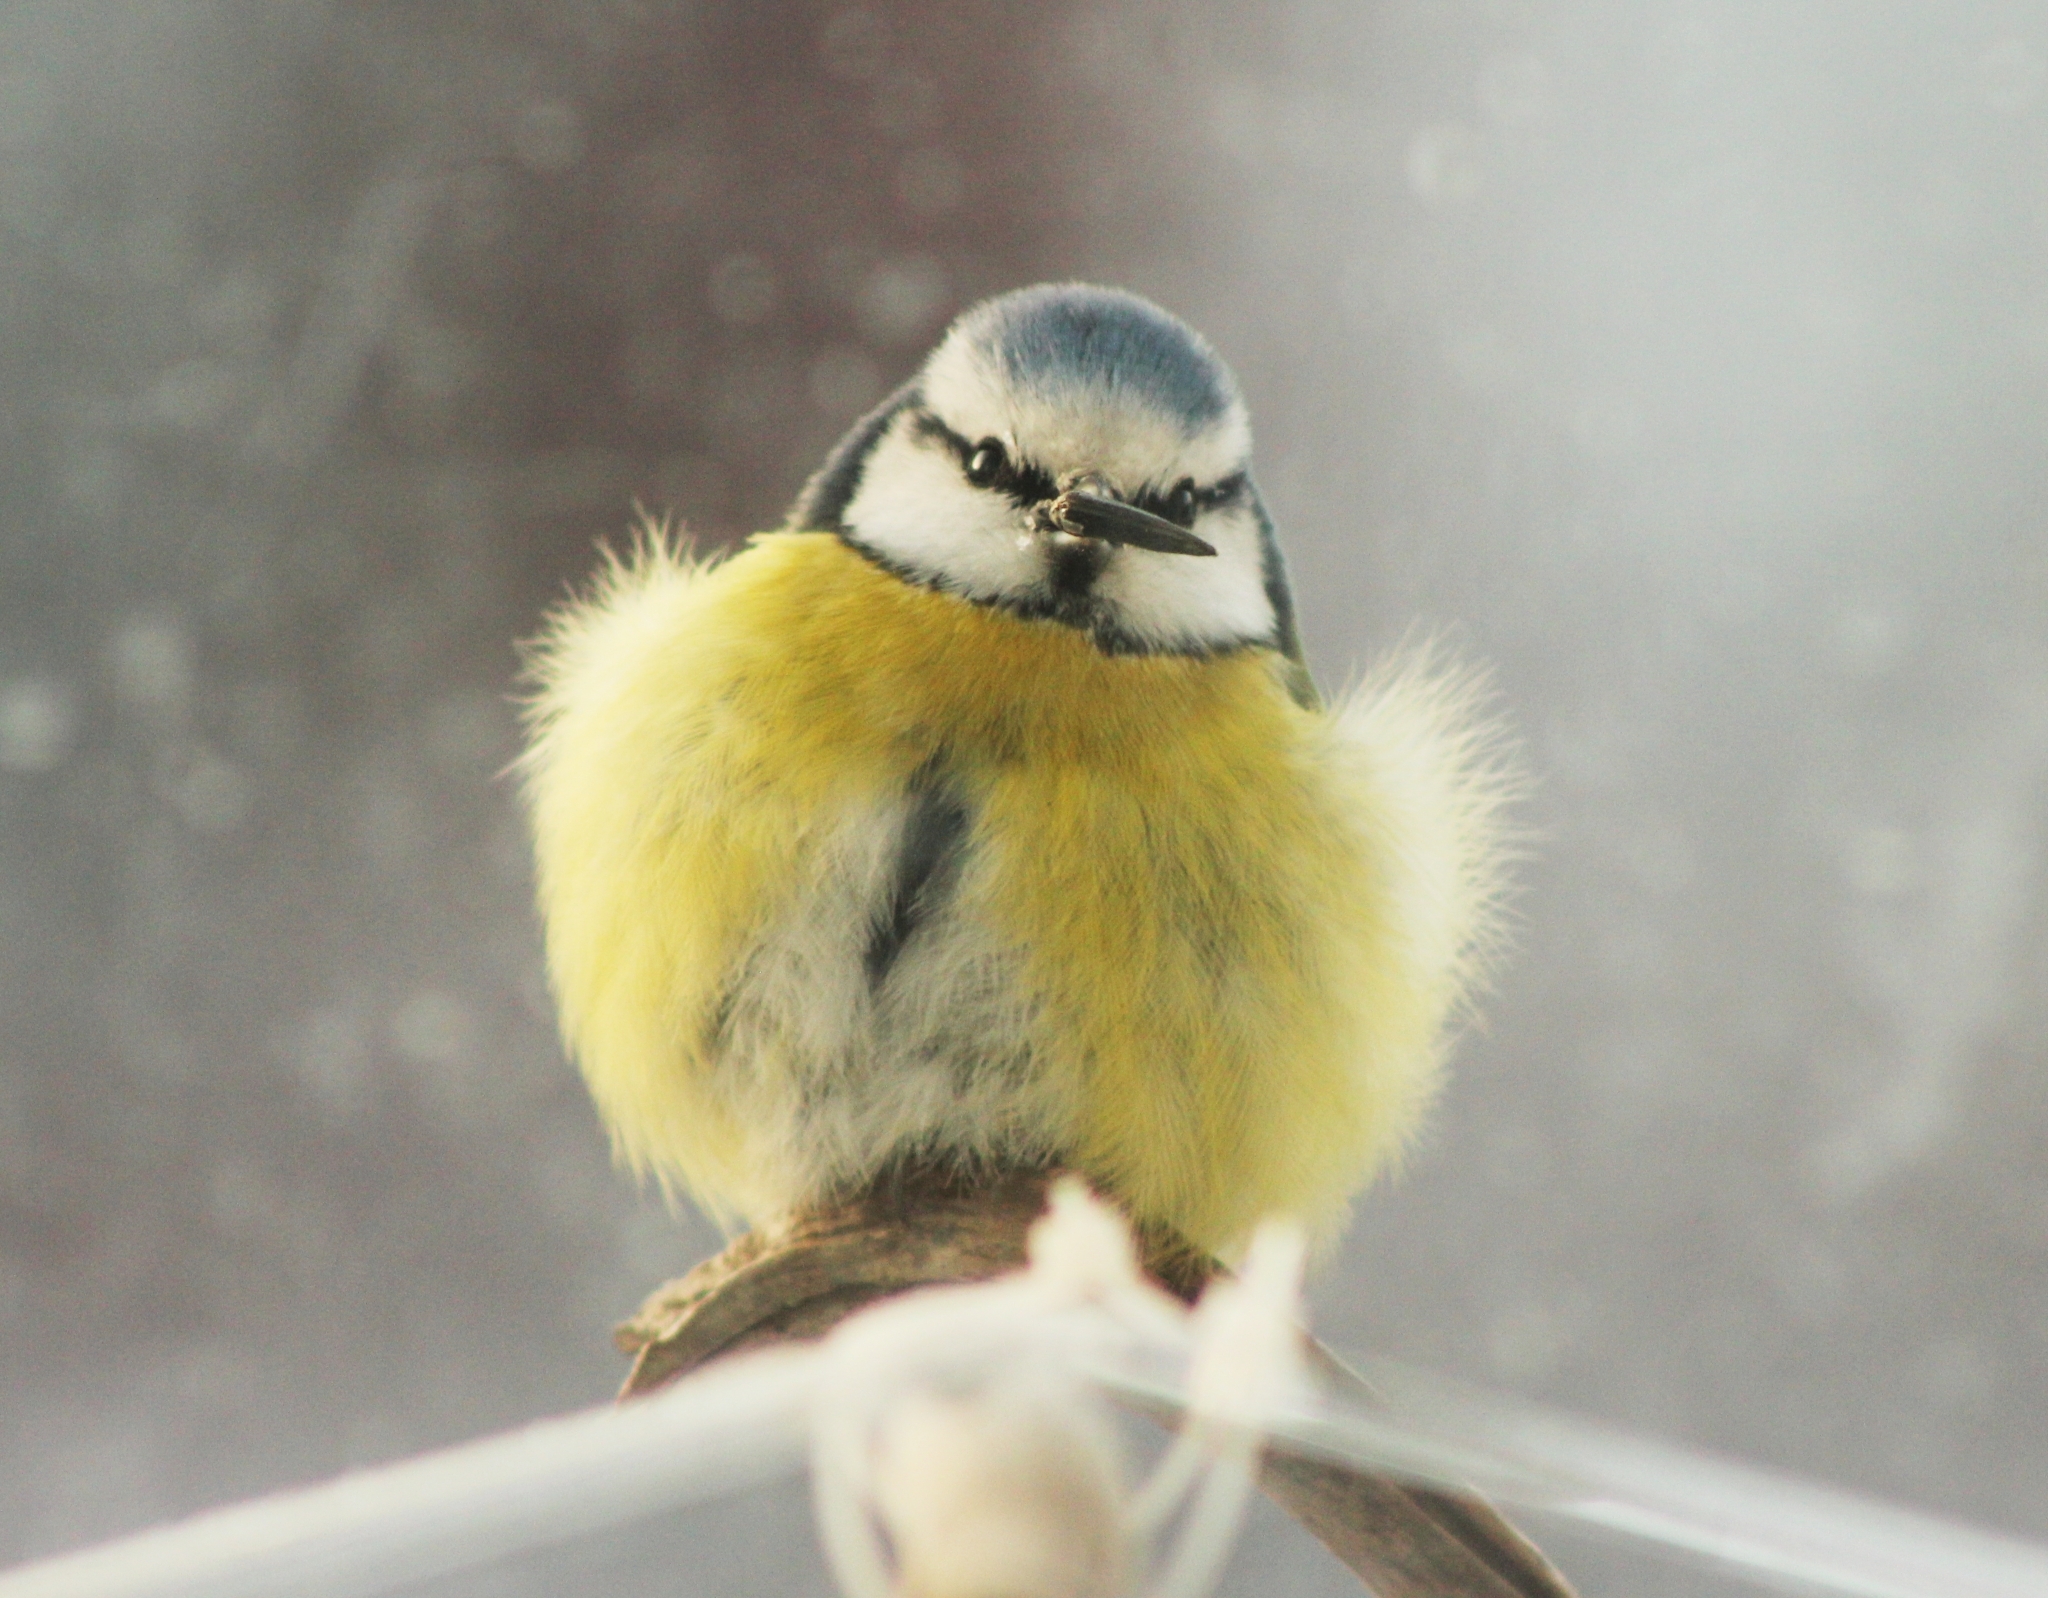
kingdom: Animalia
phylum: Chordata
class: Aves
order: Passeriformes
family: Paridae
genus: Cyanistes
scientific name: Cyanistes caeruleus
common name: Eurasian blue tit
